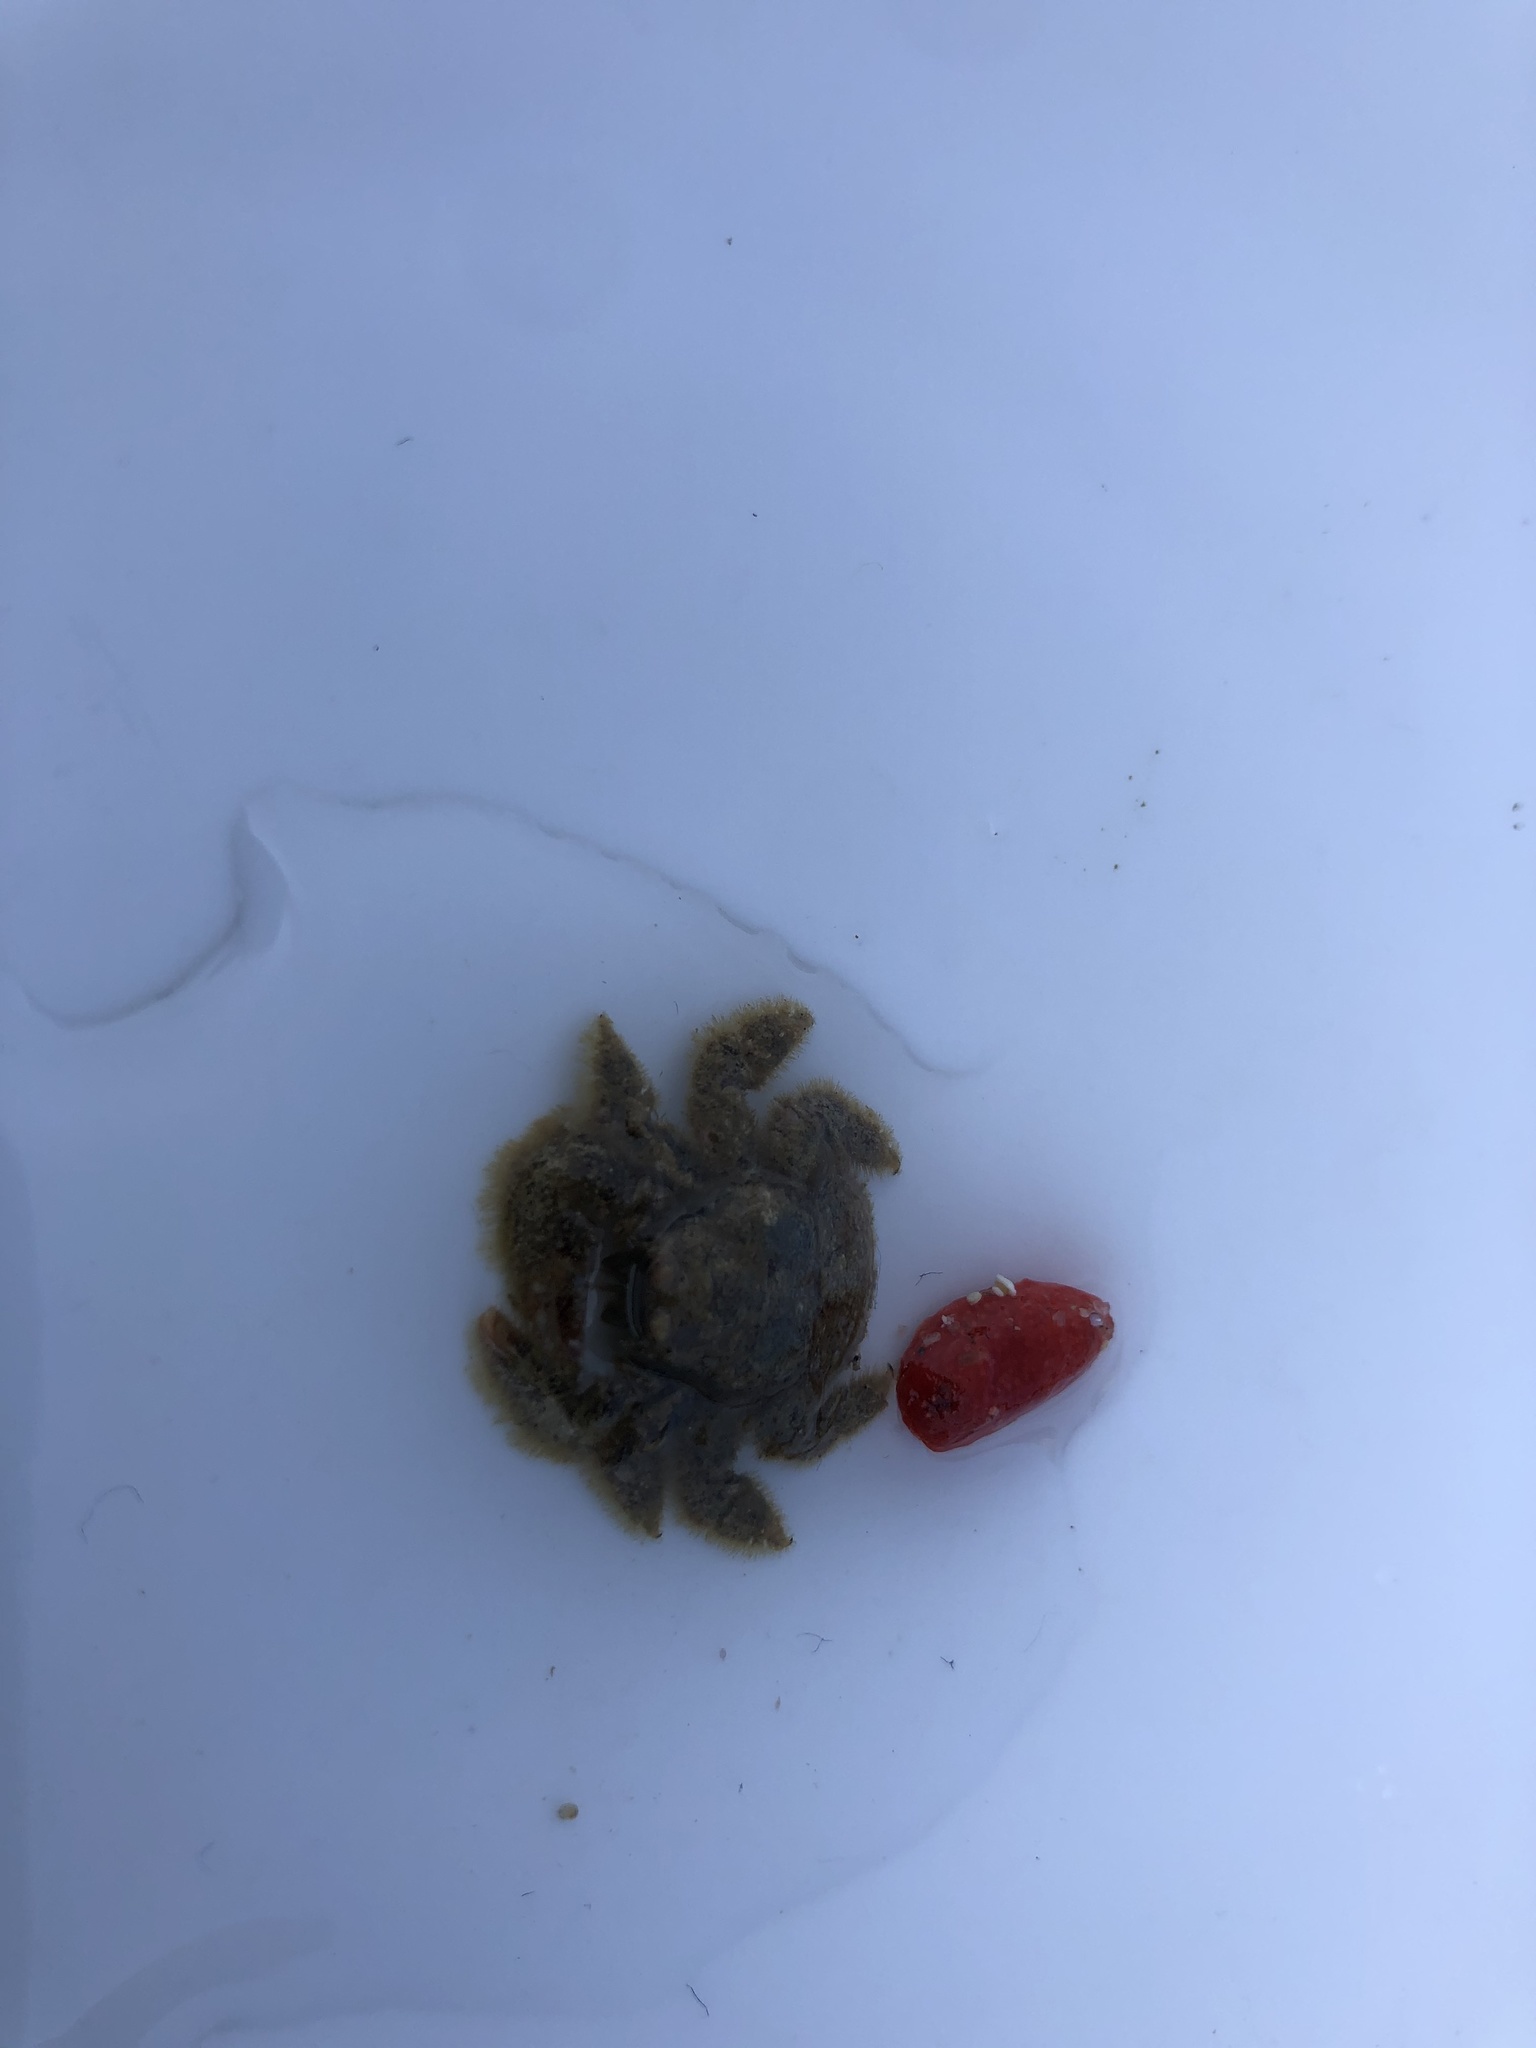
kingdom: Animalia
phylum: Arthropoda
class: Malacostraca
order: Decapoda
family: Hapalogastridae
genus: Hapalogaster
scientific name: Hapalogaster cavicauda
